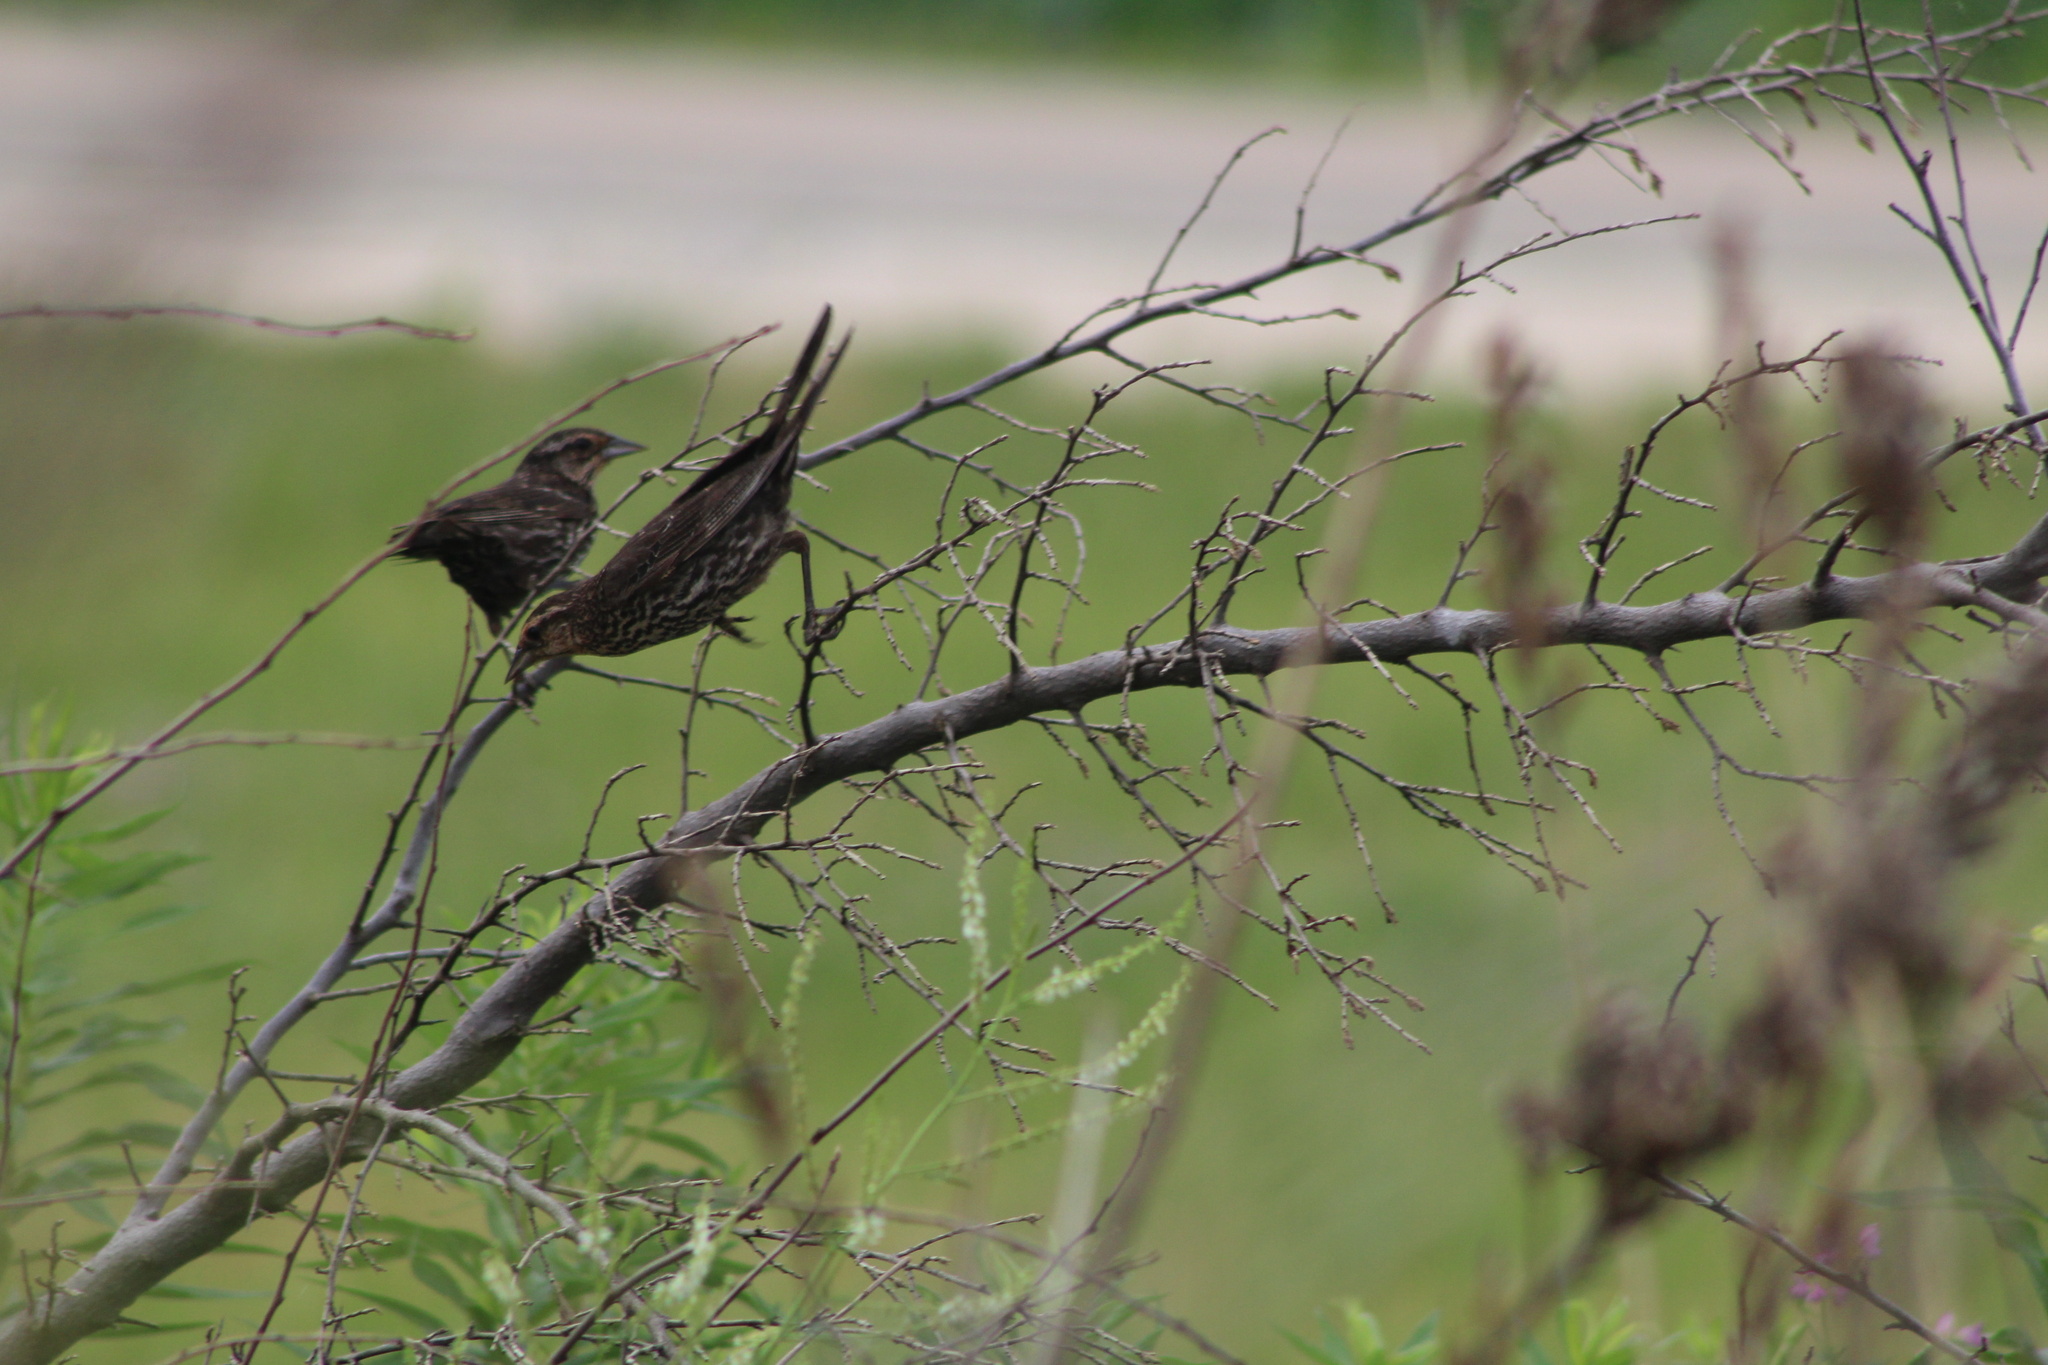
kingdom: Animalia
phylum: Chordata
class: Aves
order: Passeriformes
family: Icteridae
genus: Agelaius
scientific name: Agelaius phoeniceus
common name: Red-winged blackbird
